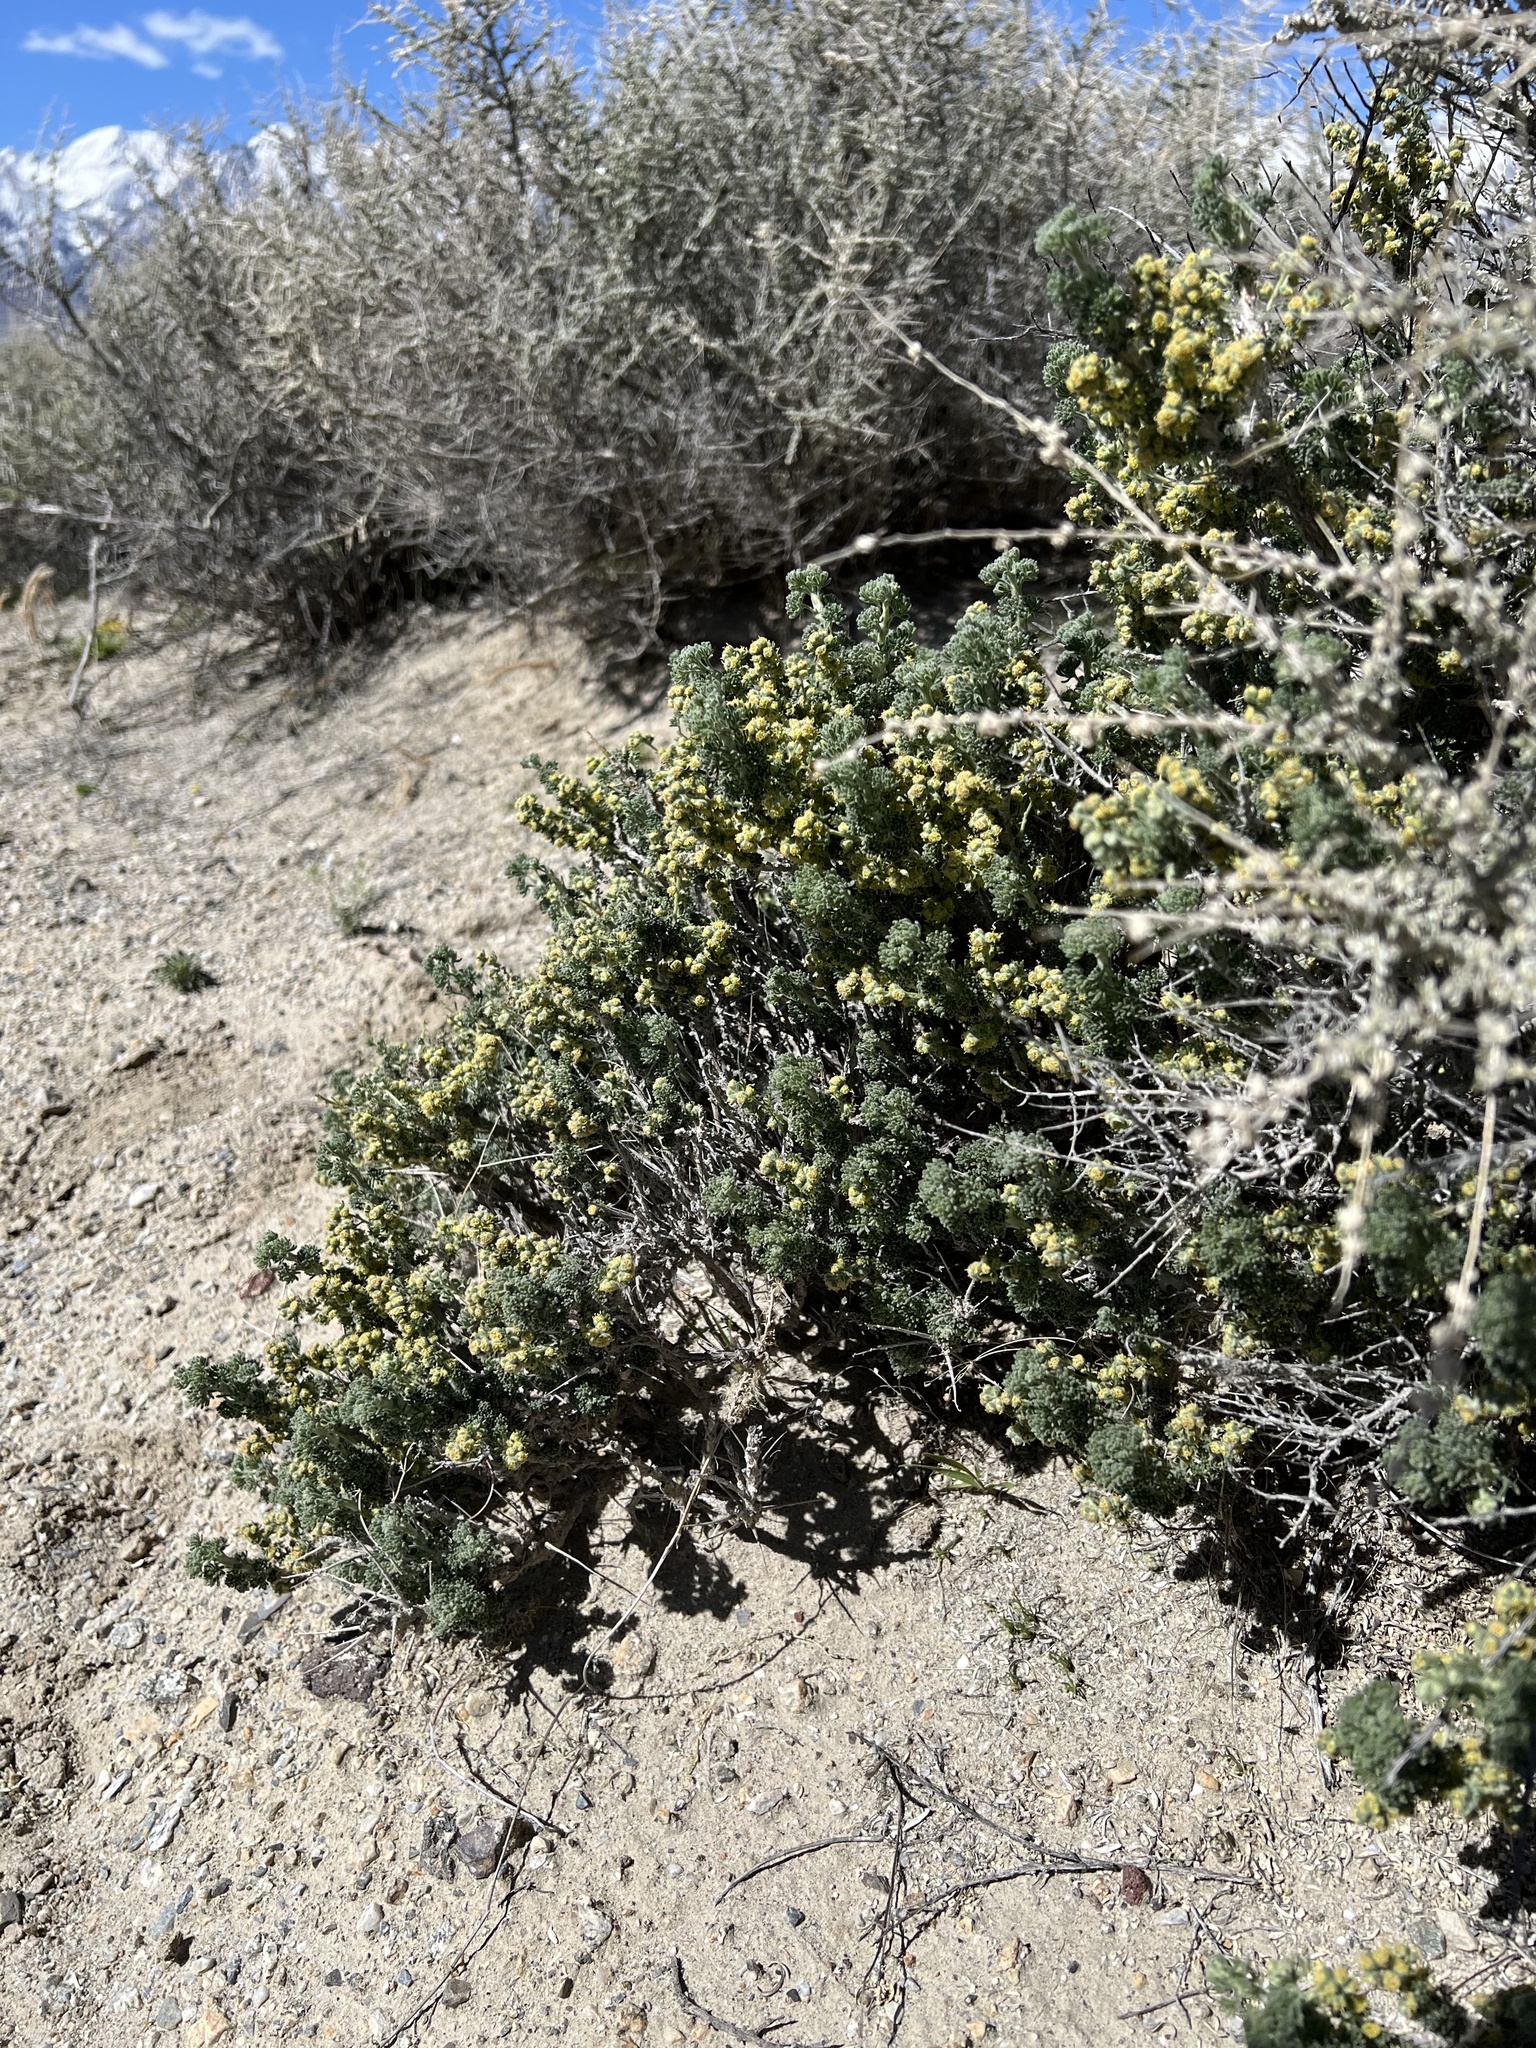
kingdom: Plantae
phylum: Tracheophyta
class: Magnoliopsida
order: Asterales
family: Asteraceae
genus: Artemisia
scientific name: Artemisia spinescens
